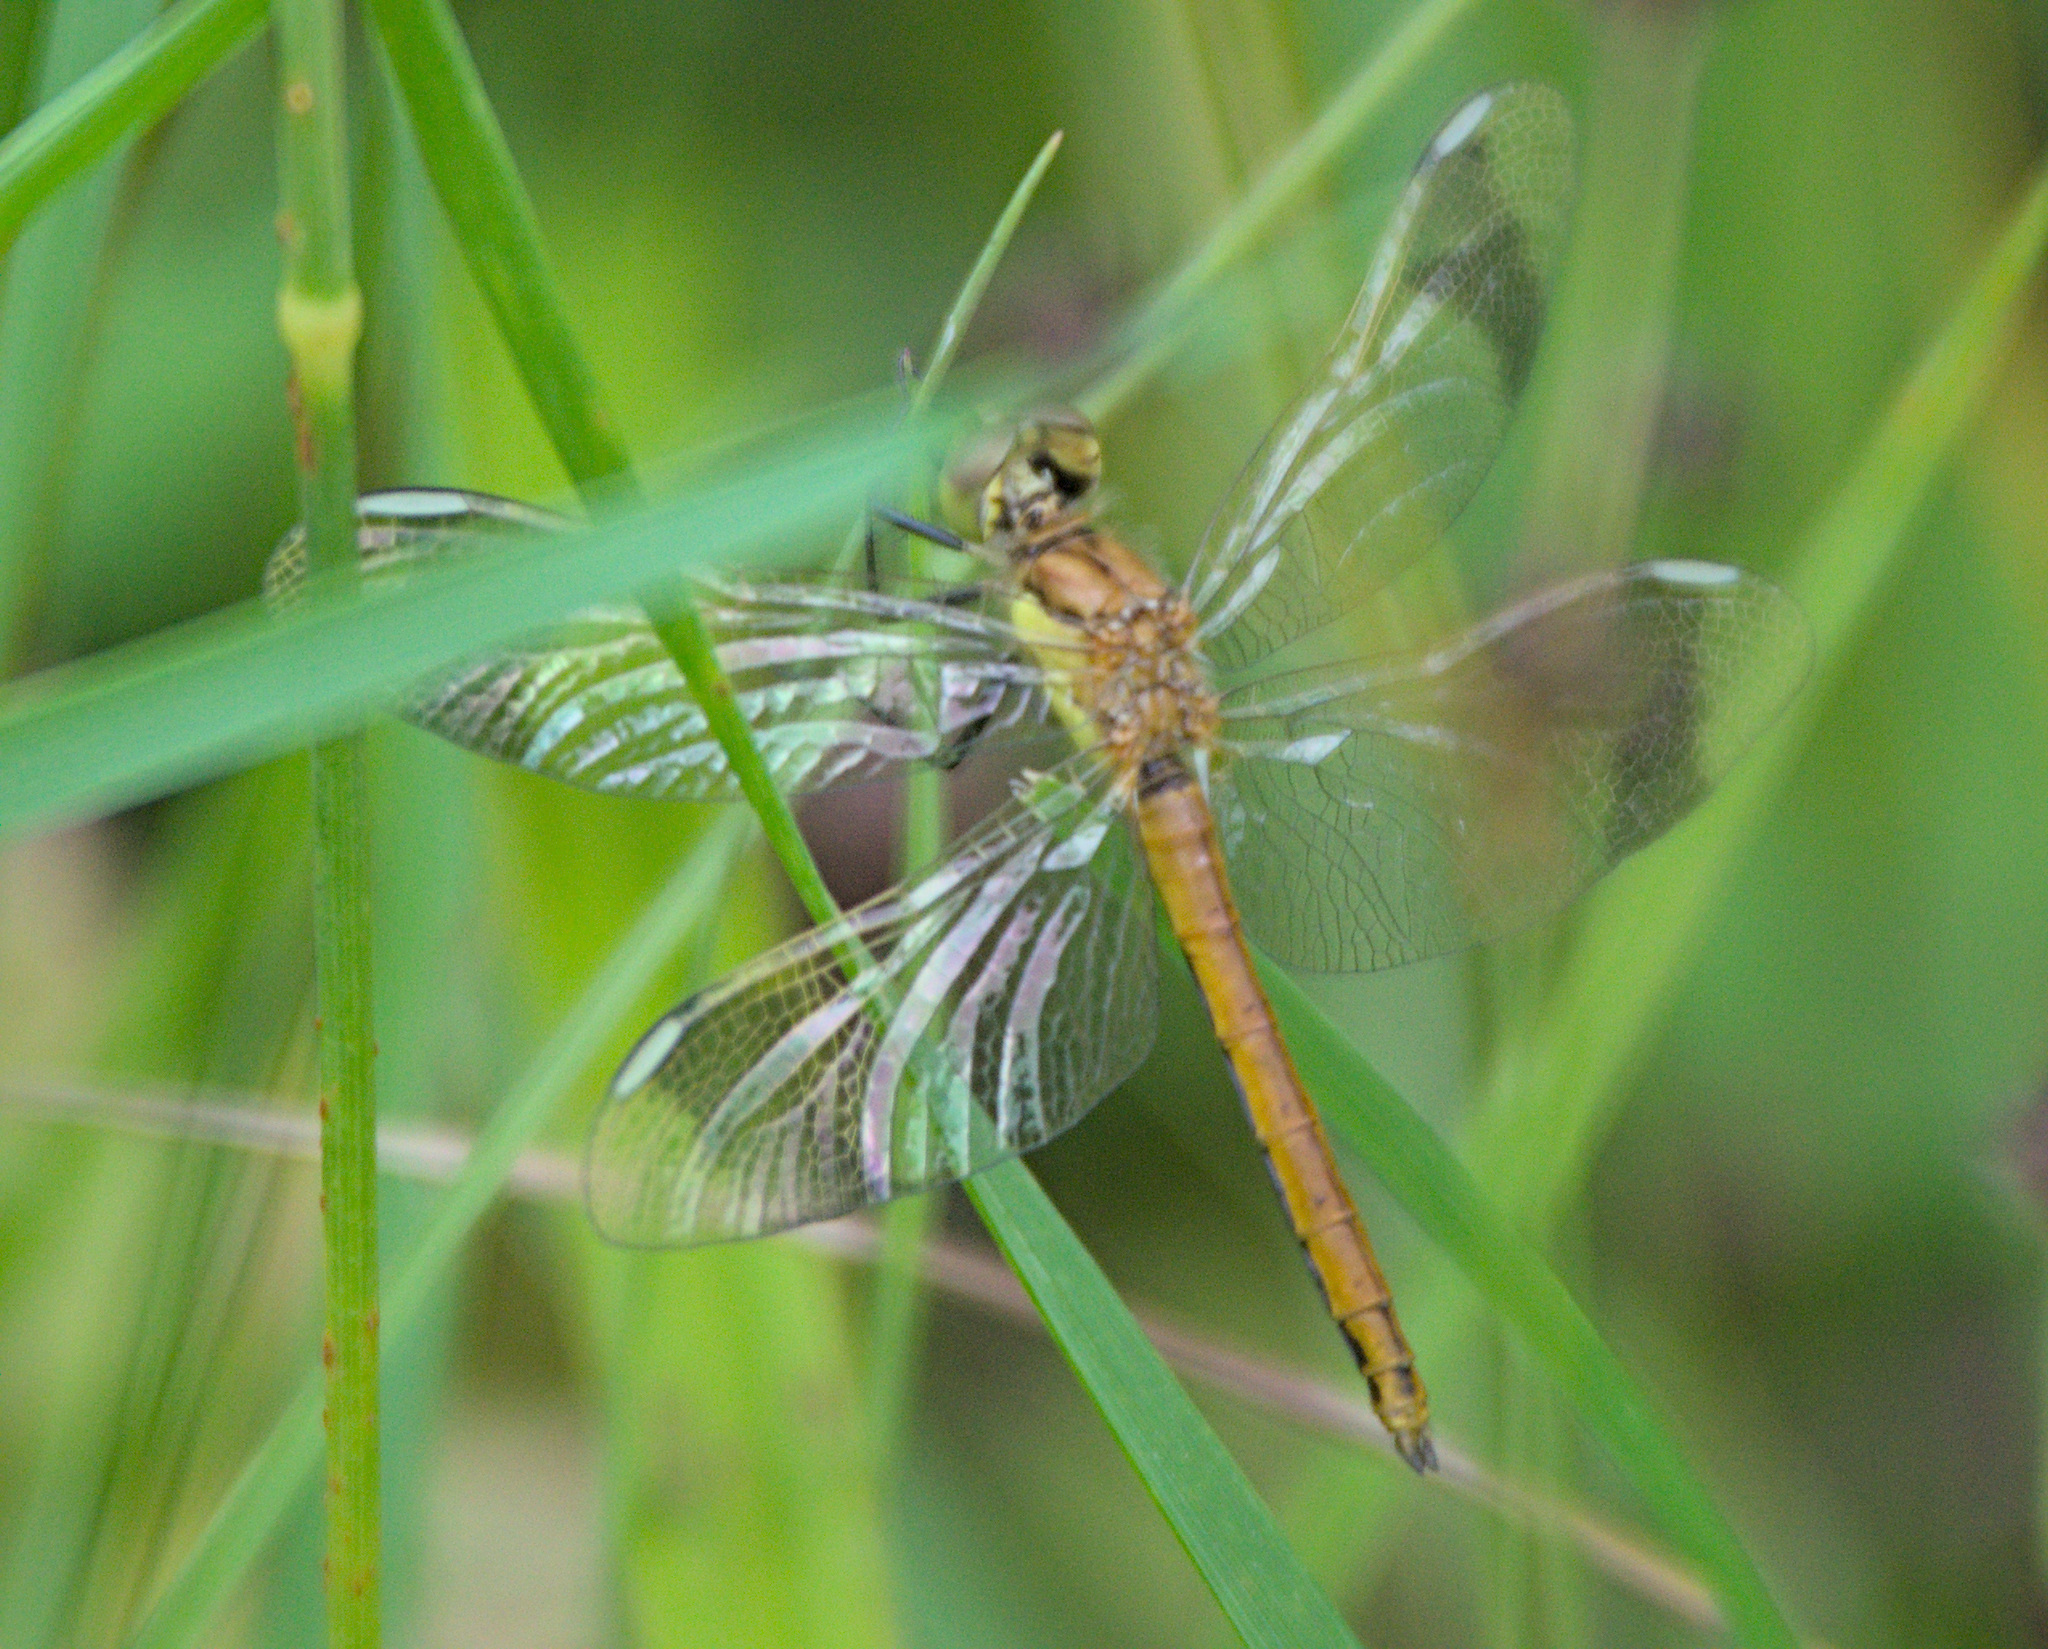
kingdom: Animalia
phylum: Arthropoda
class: Insecta
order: Odonata
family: Libellulidae
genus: Sympetrum
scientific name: Sympetrum pedemontanum
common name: Banded darter
